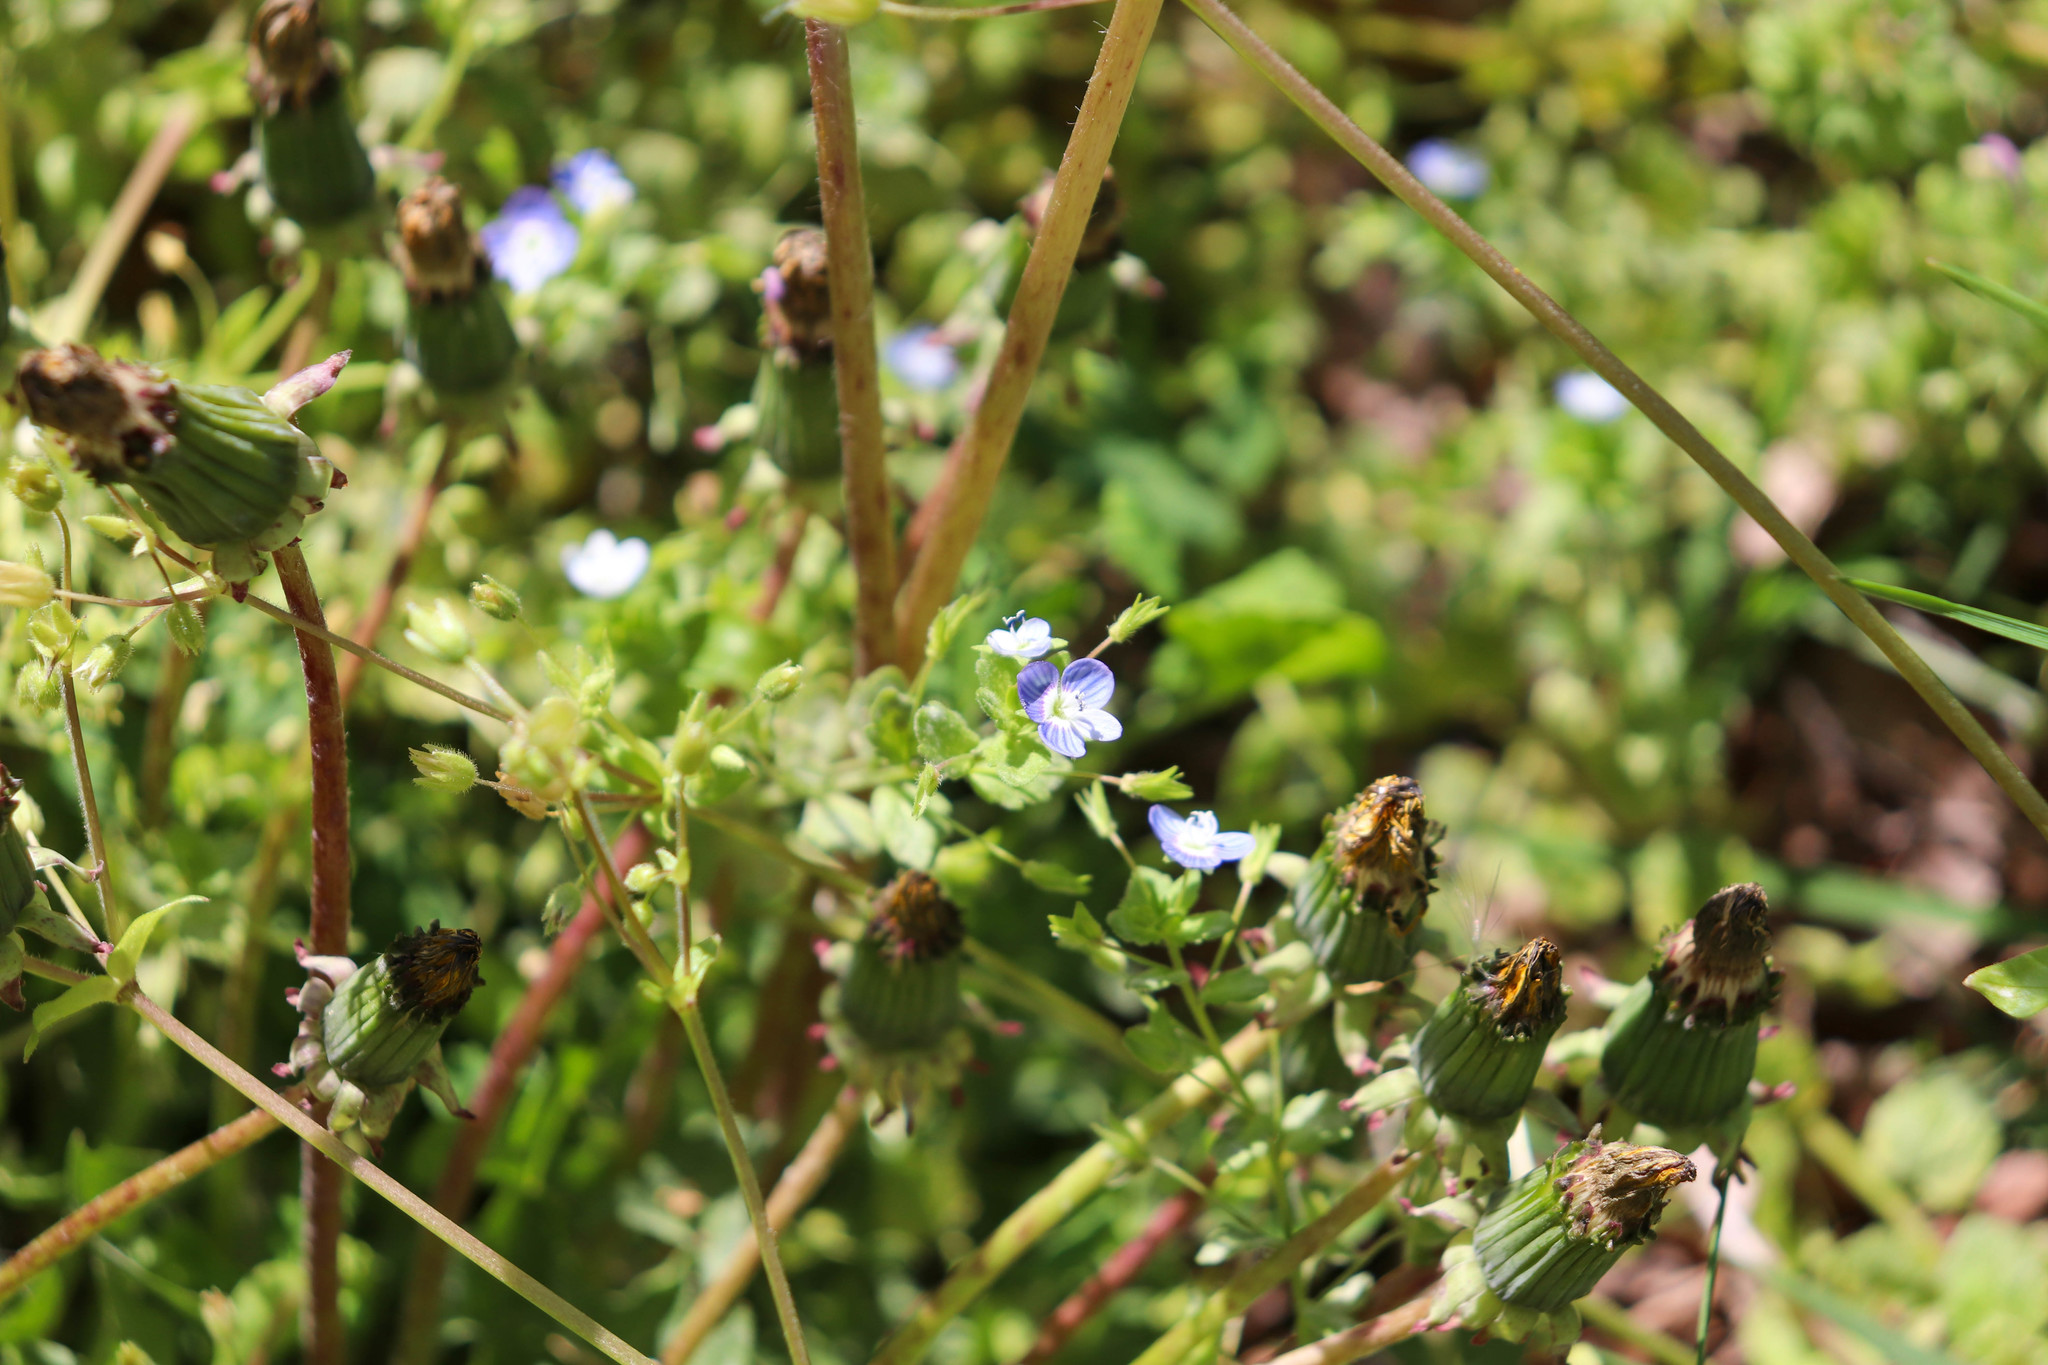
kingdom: Plantae
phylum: Tracheophyta
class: Magnoliopsida
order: Lamiales
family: Plantaginaceae
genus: Veronica
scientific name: Veronica persica
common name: Common field-speedwell
